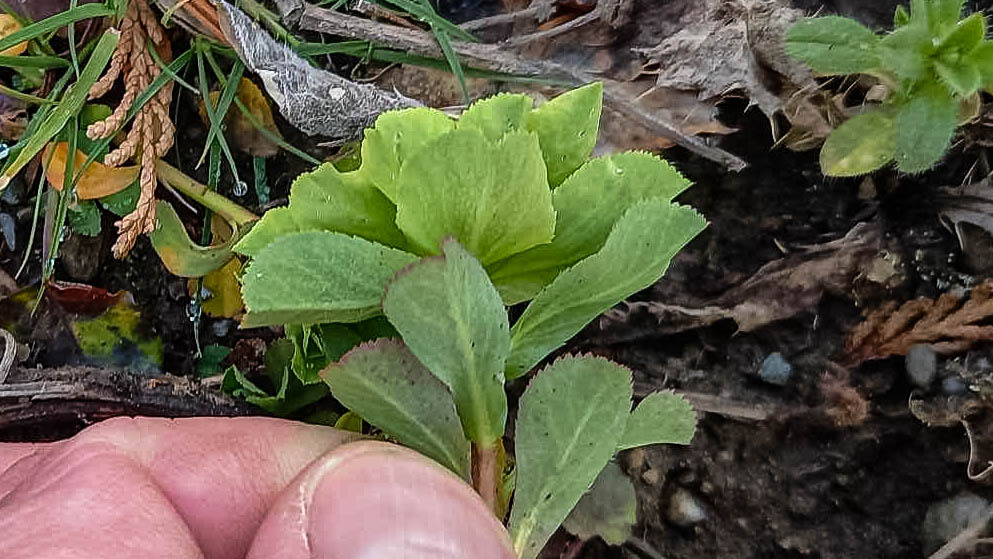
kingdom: Plantae
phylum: Tracheophyta
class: Magnoliopsida
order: Malpighiales
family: Euphorbiaceae
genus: Euphorbia
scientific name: Euphorbia helioscopia
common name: Sun spurge
